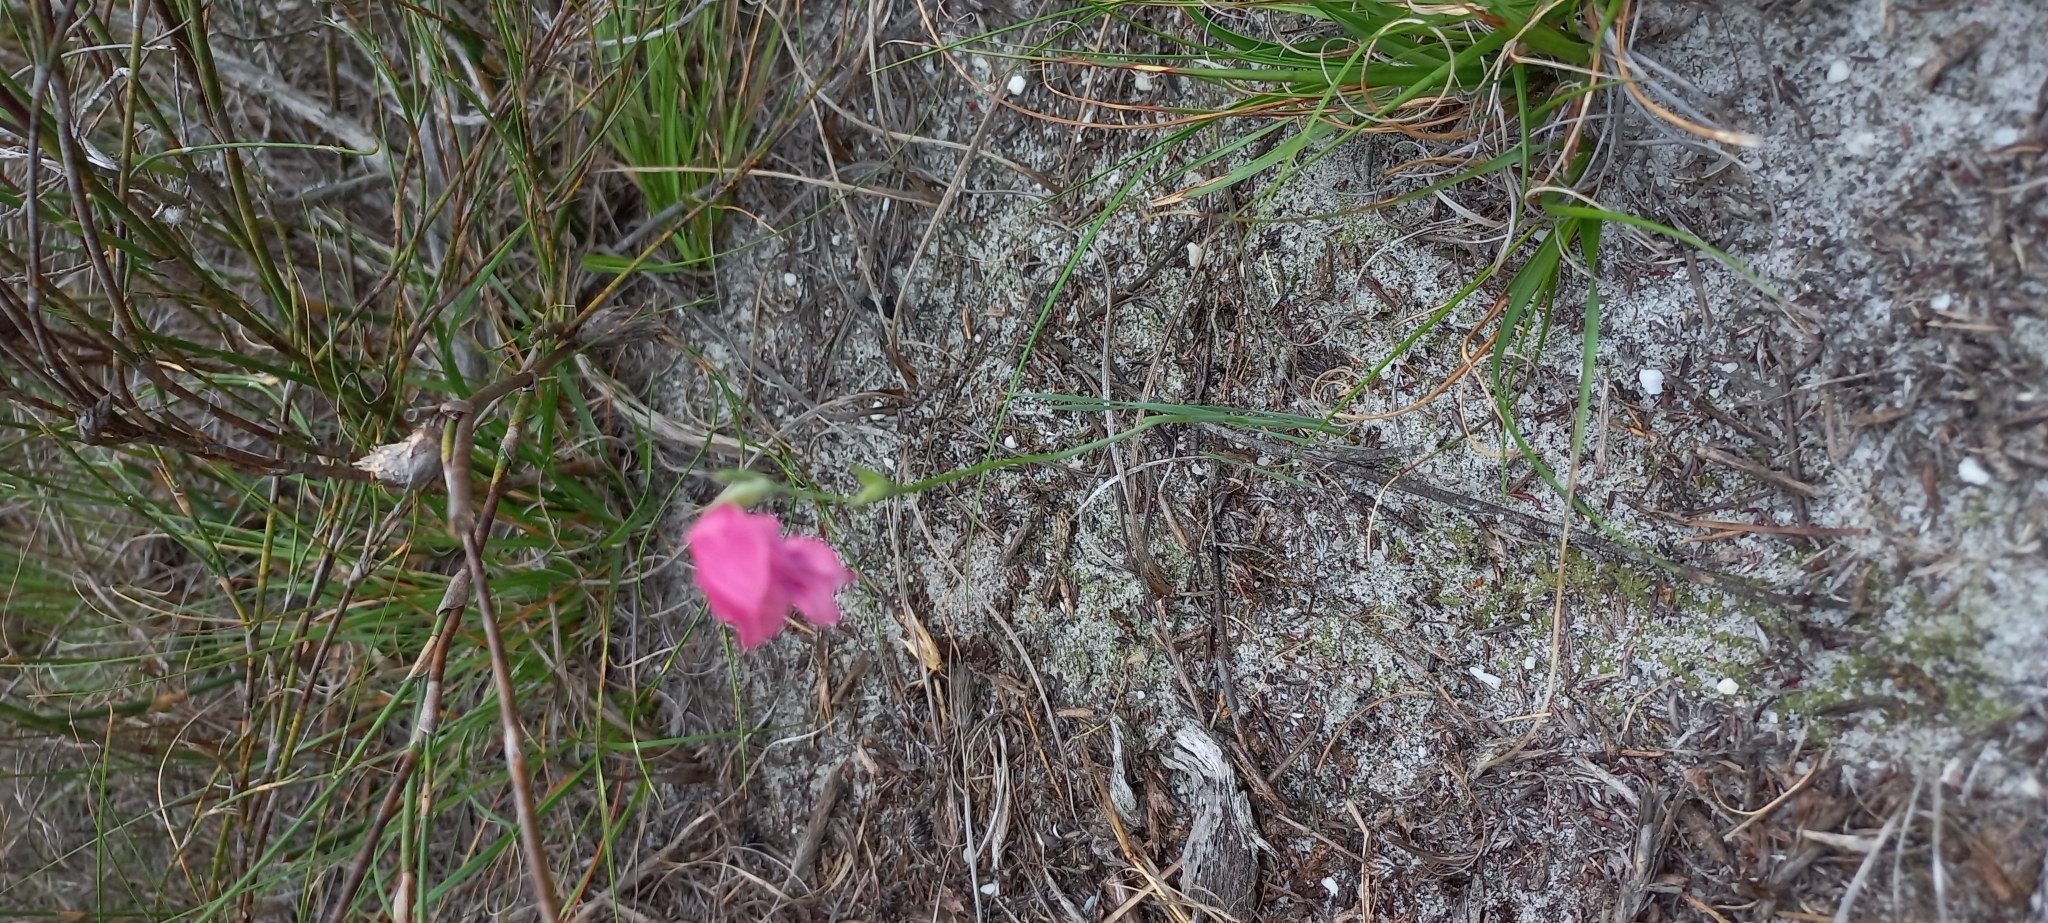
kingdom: Plantae
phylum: Tracheophyta
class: Liliopsida
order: Asparagales
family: Iridaceae
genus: Gladiolus
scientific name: Gladiolus brevifolius
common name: March pypie
